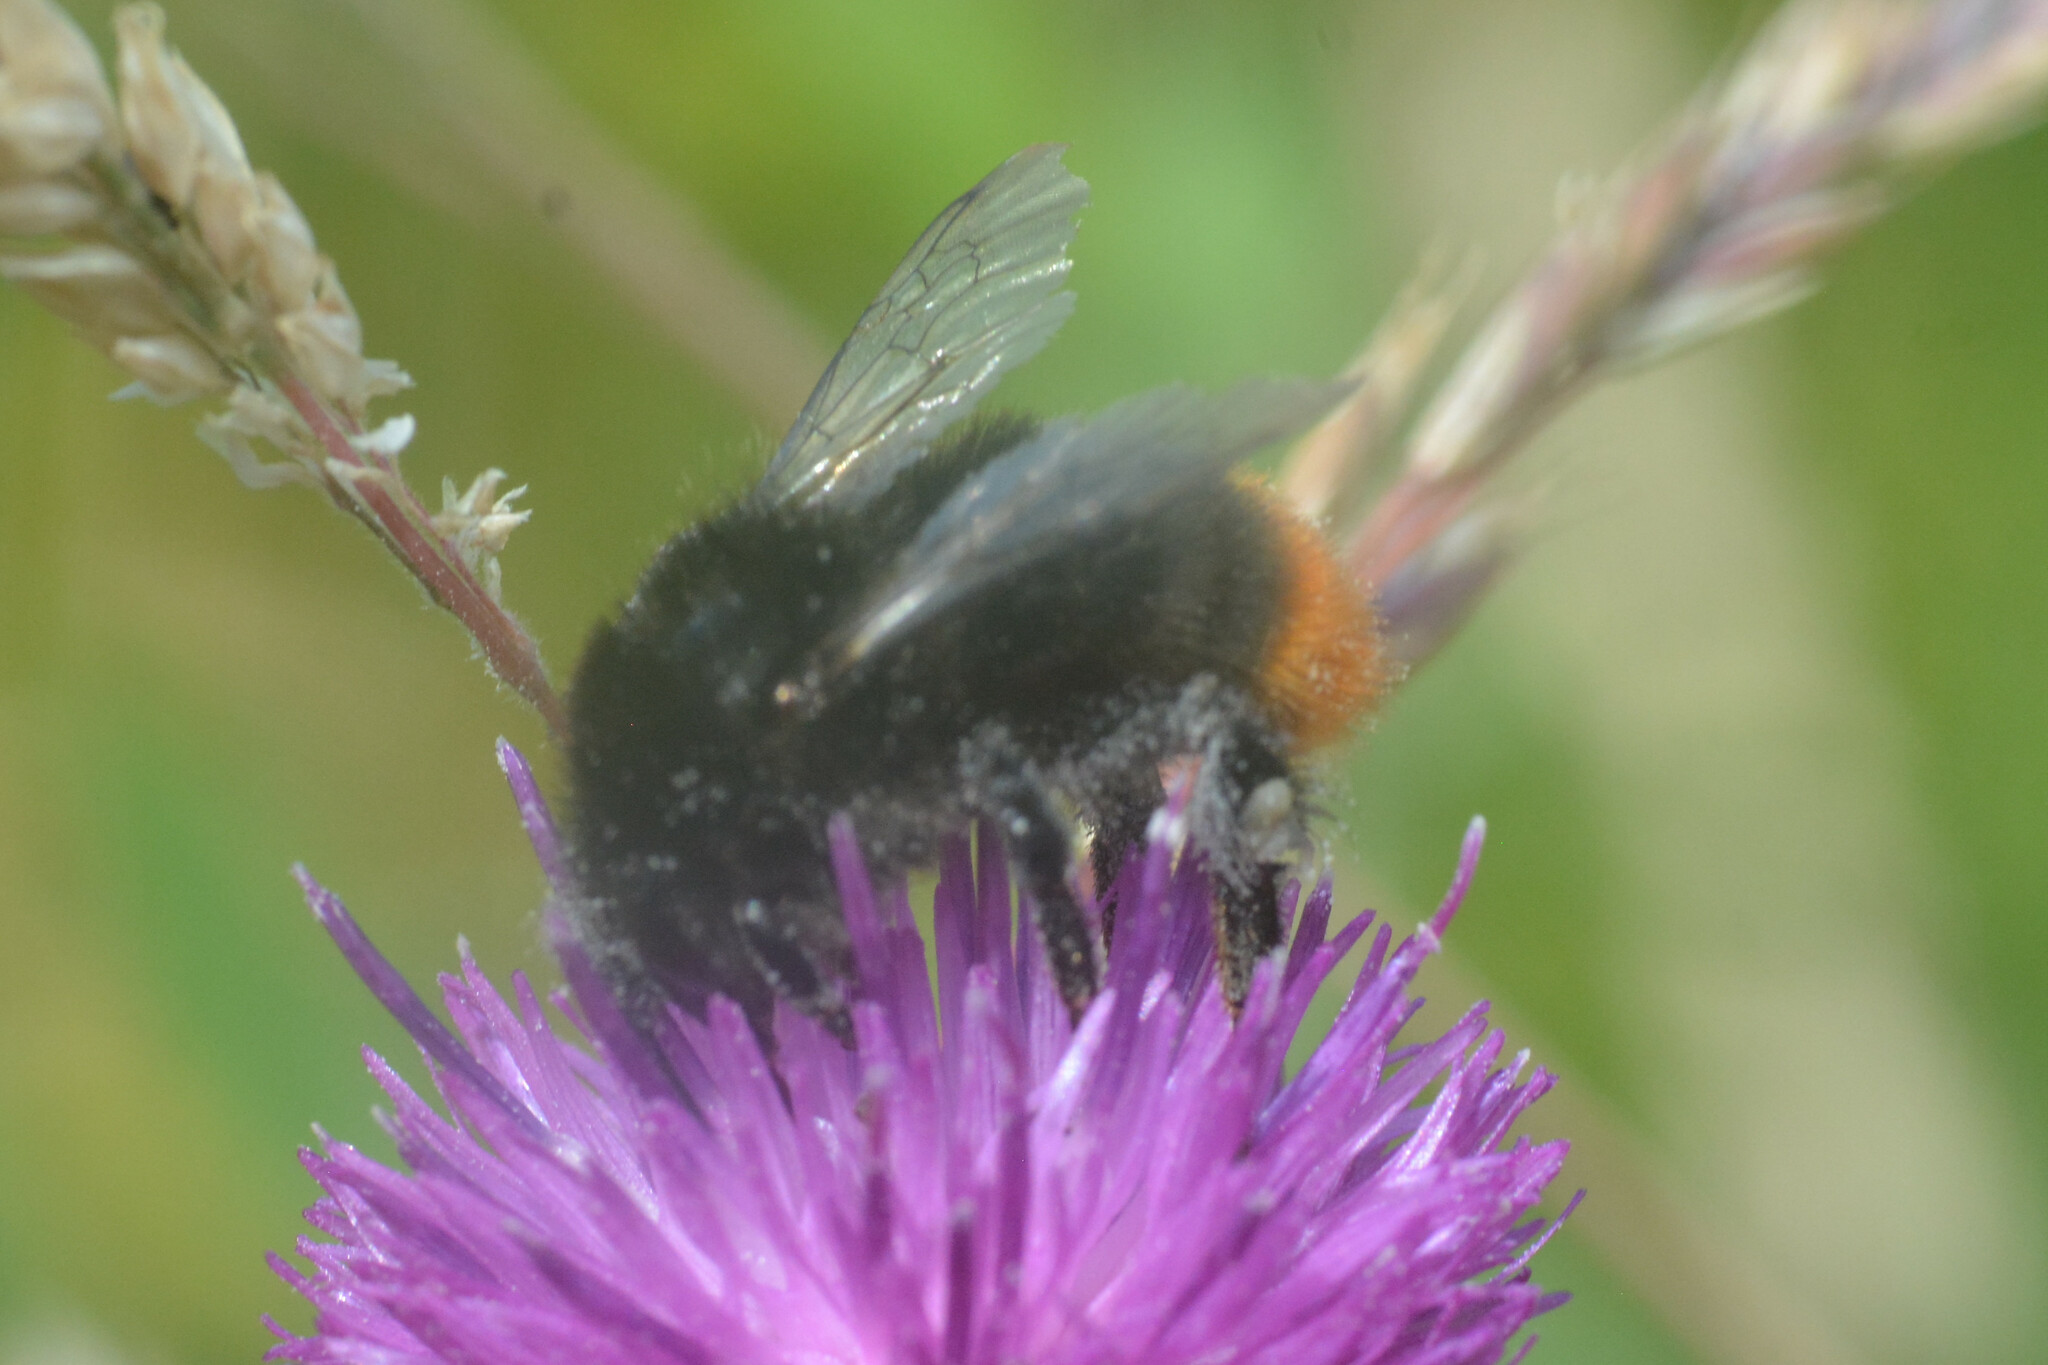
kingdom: Animalia
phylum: Arthropoda
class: Insecta
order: Hymenoptera
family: Apidae
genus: Bombus
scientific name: Bombus lapidarius
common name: Large red-tailed humble-bee
